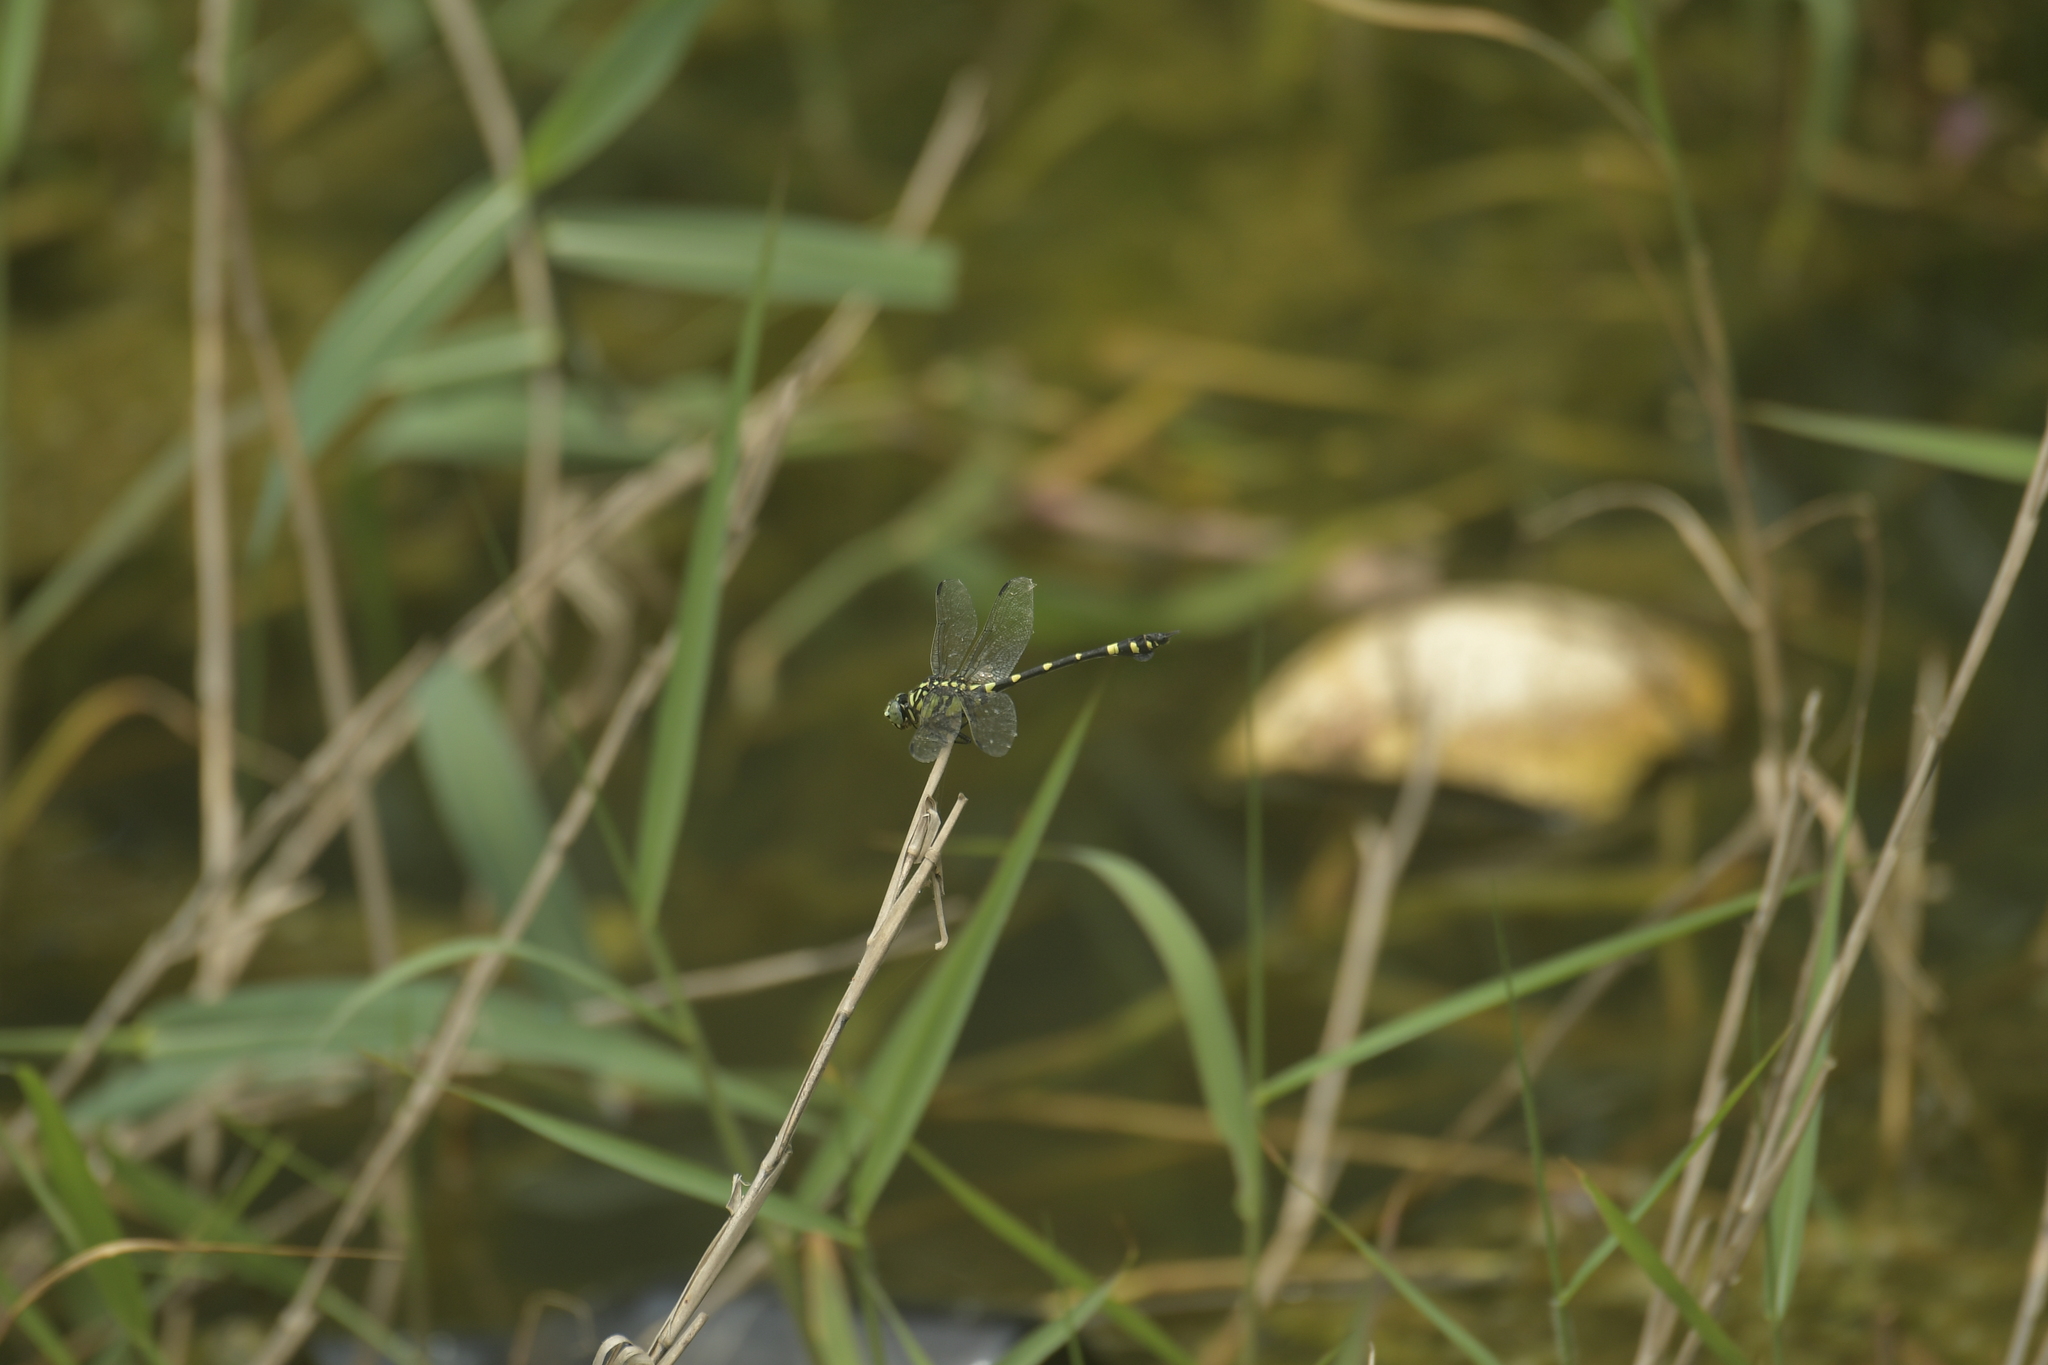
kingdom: Animalia
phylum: Arthropoda
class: Insecta
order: Odonata
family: Gomphidae
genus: Ictinogomphus
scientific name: Ictinogomphus rapax
